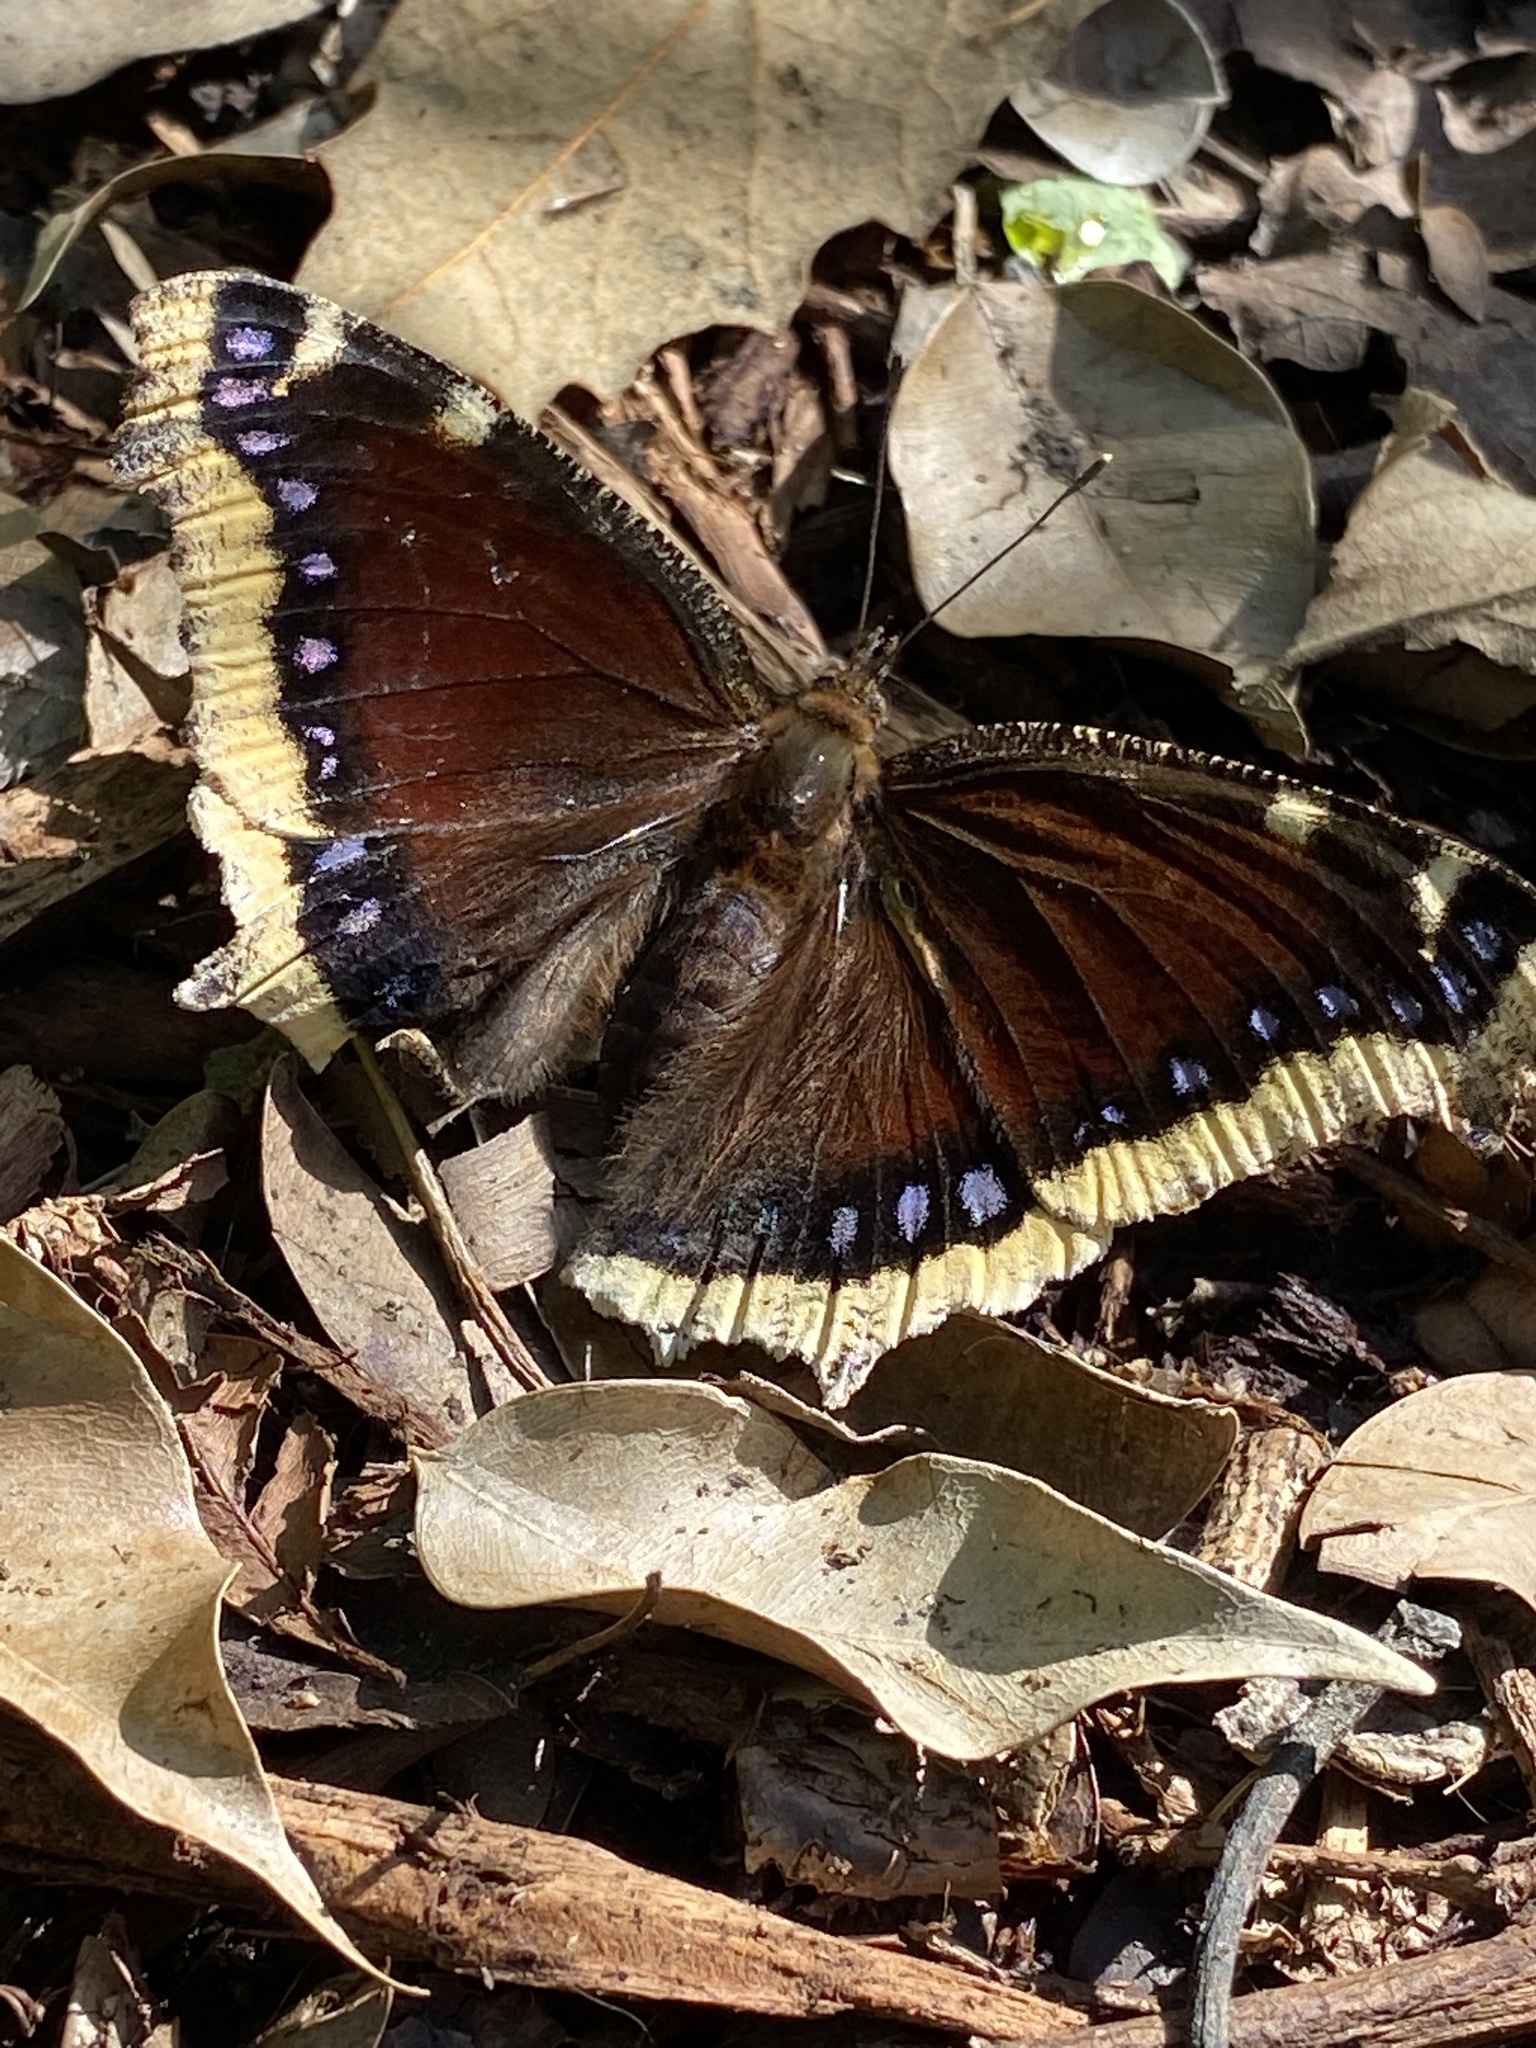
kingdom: Animalia
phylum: Arthropoda
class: Insecta
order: Lepidoptera
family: Nymphalidae
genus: Nymphalis
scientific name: Nymphalis antiopa
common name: Camberwell beauty
